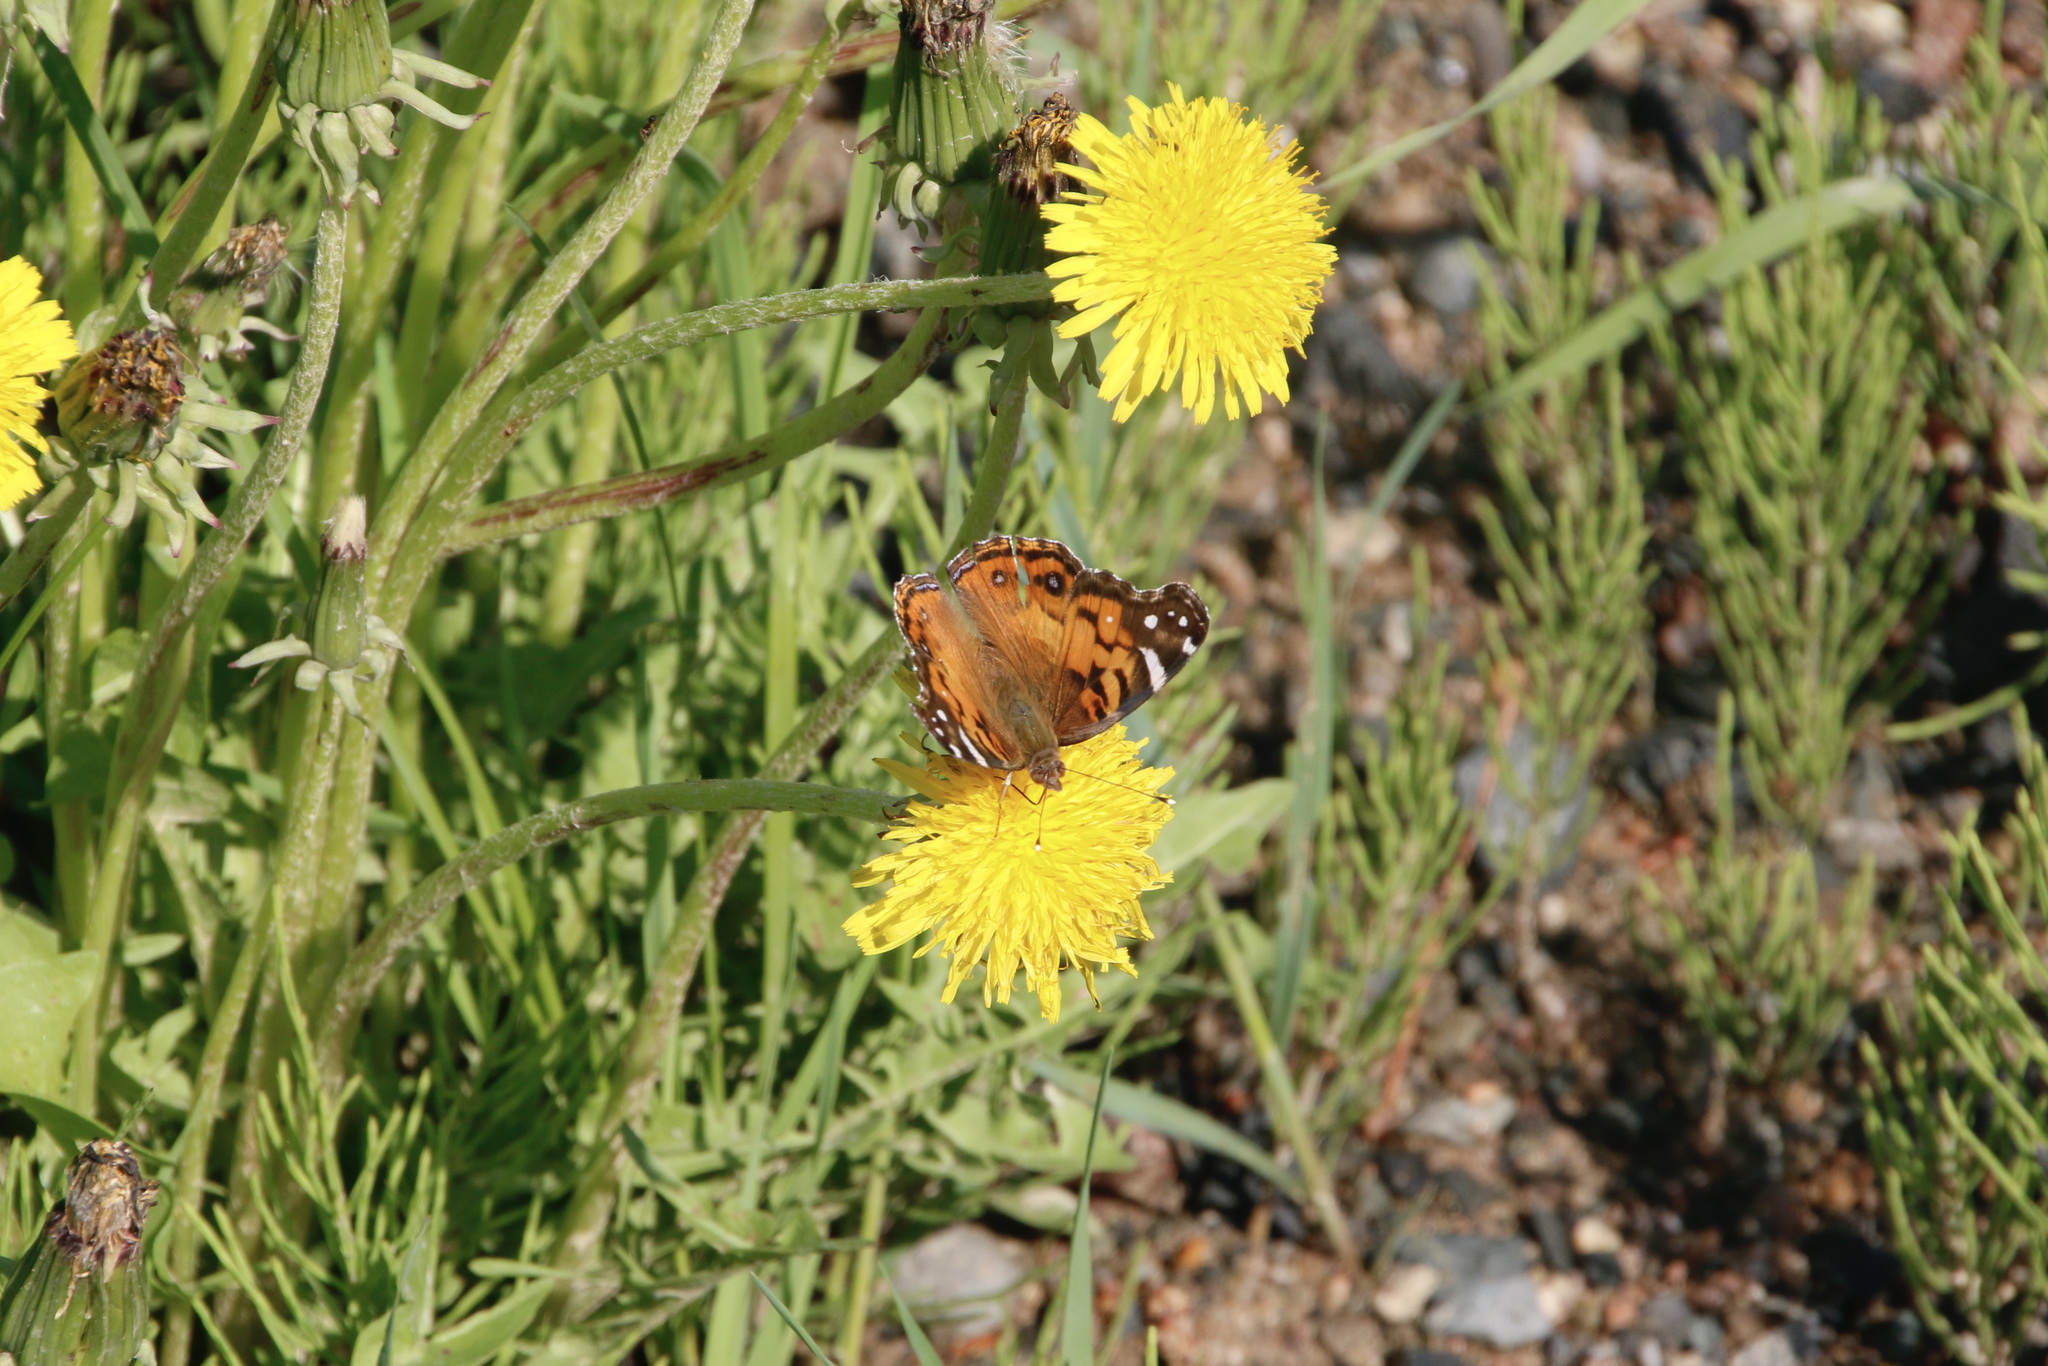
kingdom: Animalia
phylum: Arthropoda
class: Insecta
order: Lepidoptera
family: Nymphalidae
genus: Vanessa
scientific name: Vanessa virginiensis
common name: American lady
